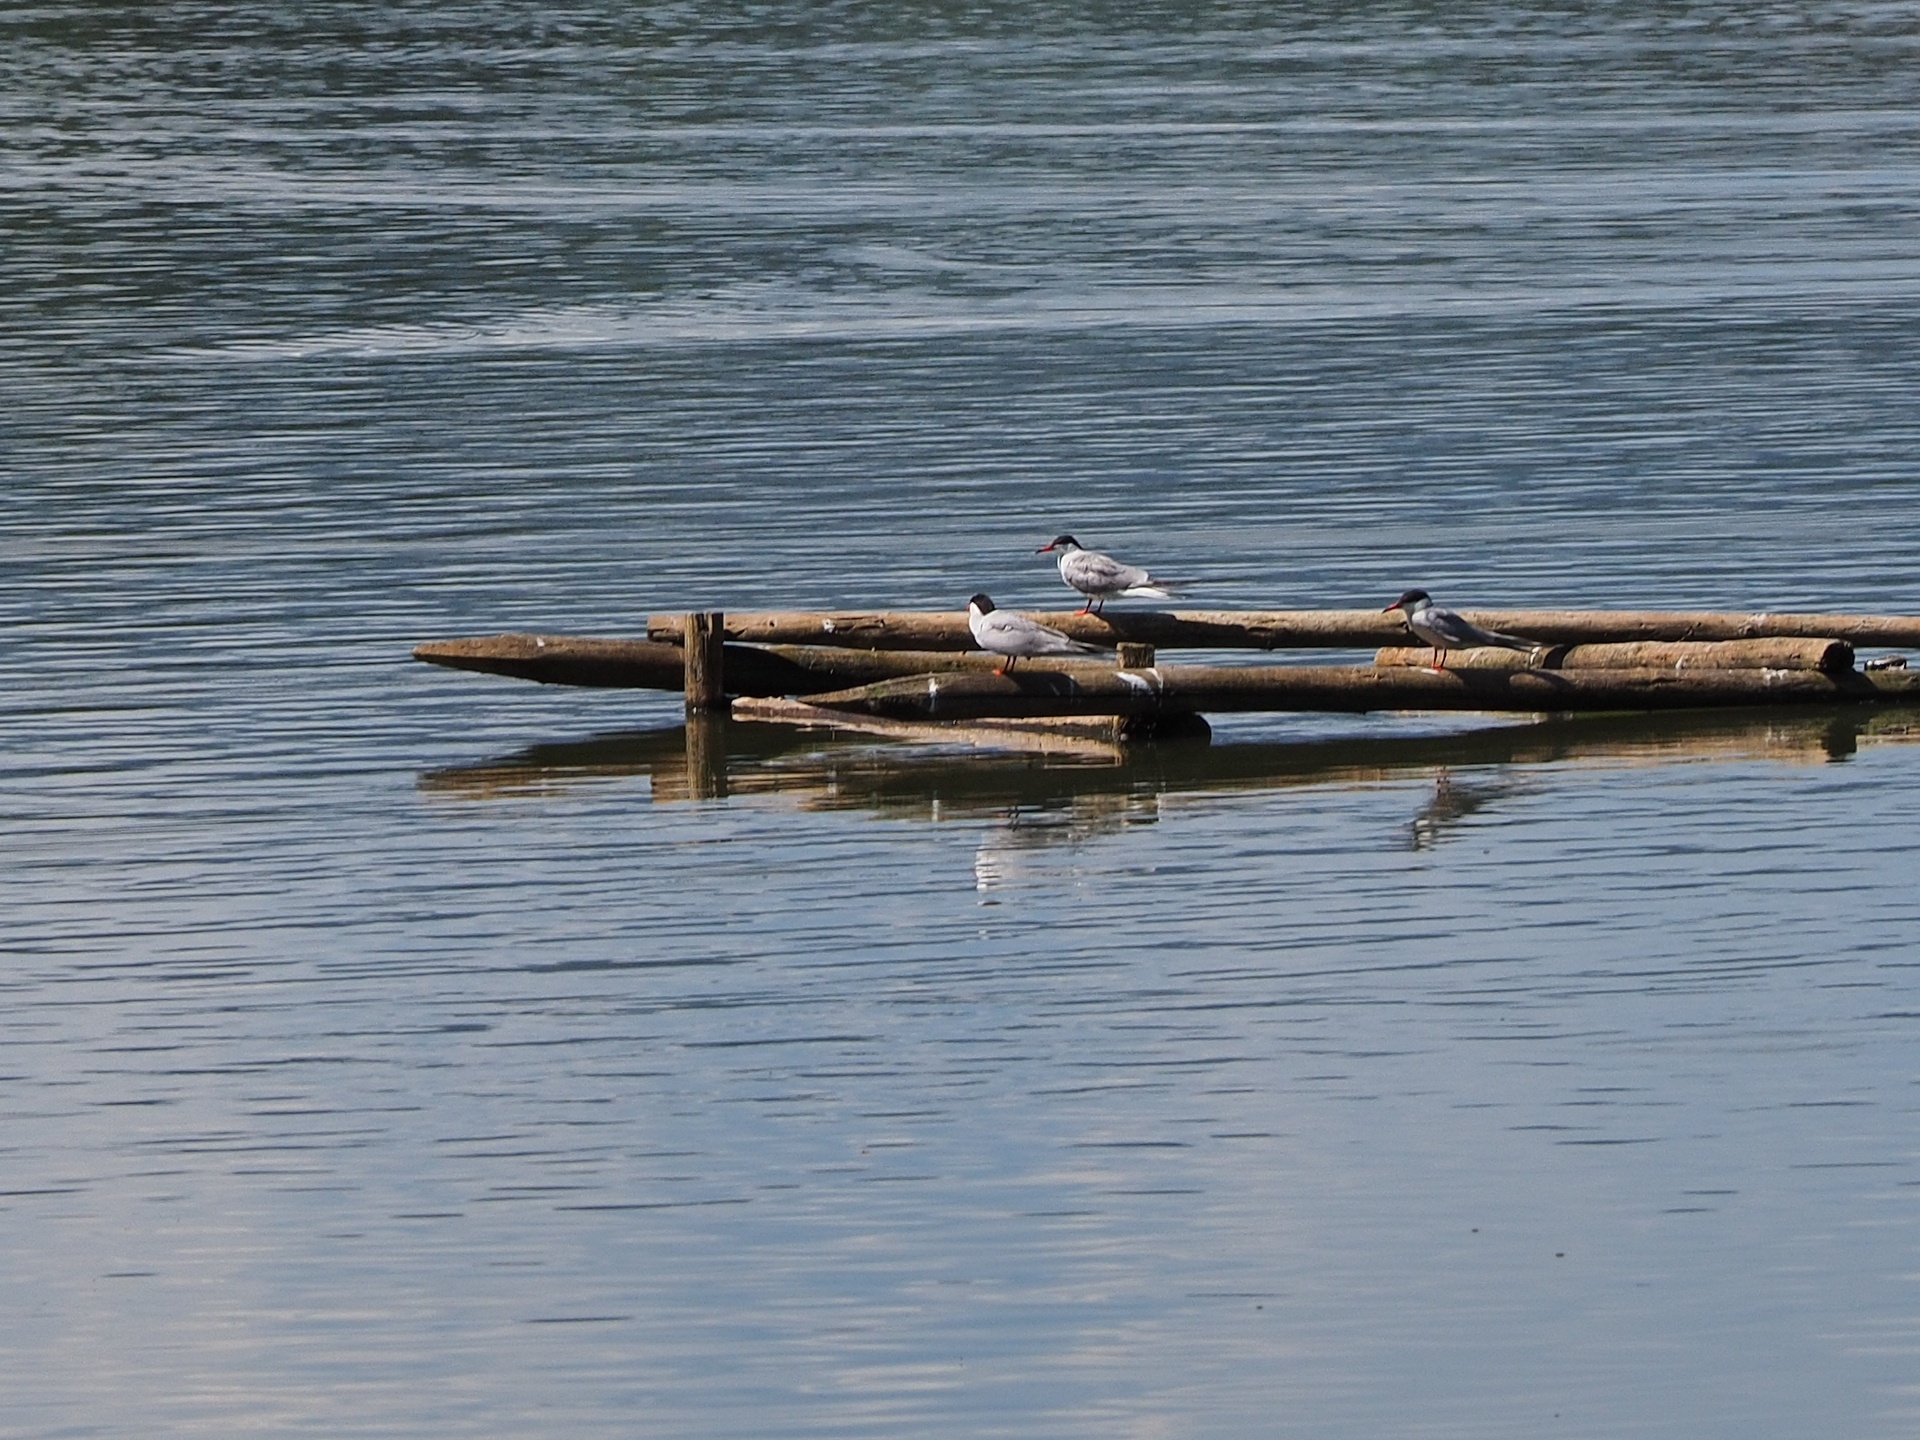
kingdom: Animalia
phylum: Chordata
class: Aves
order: Charadriiformes
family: Laridae
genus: Sterna
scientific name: Sterna hirundo
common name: Common tern
